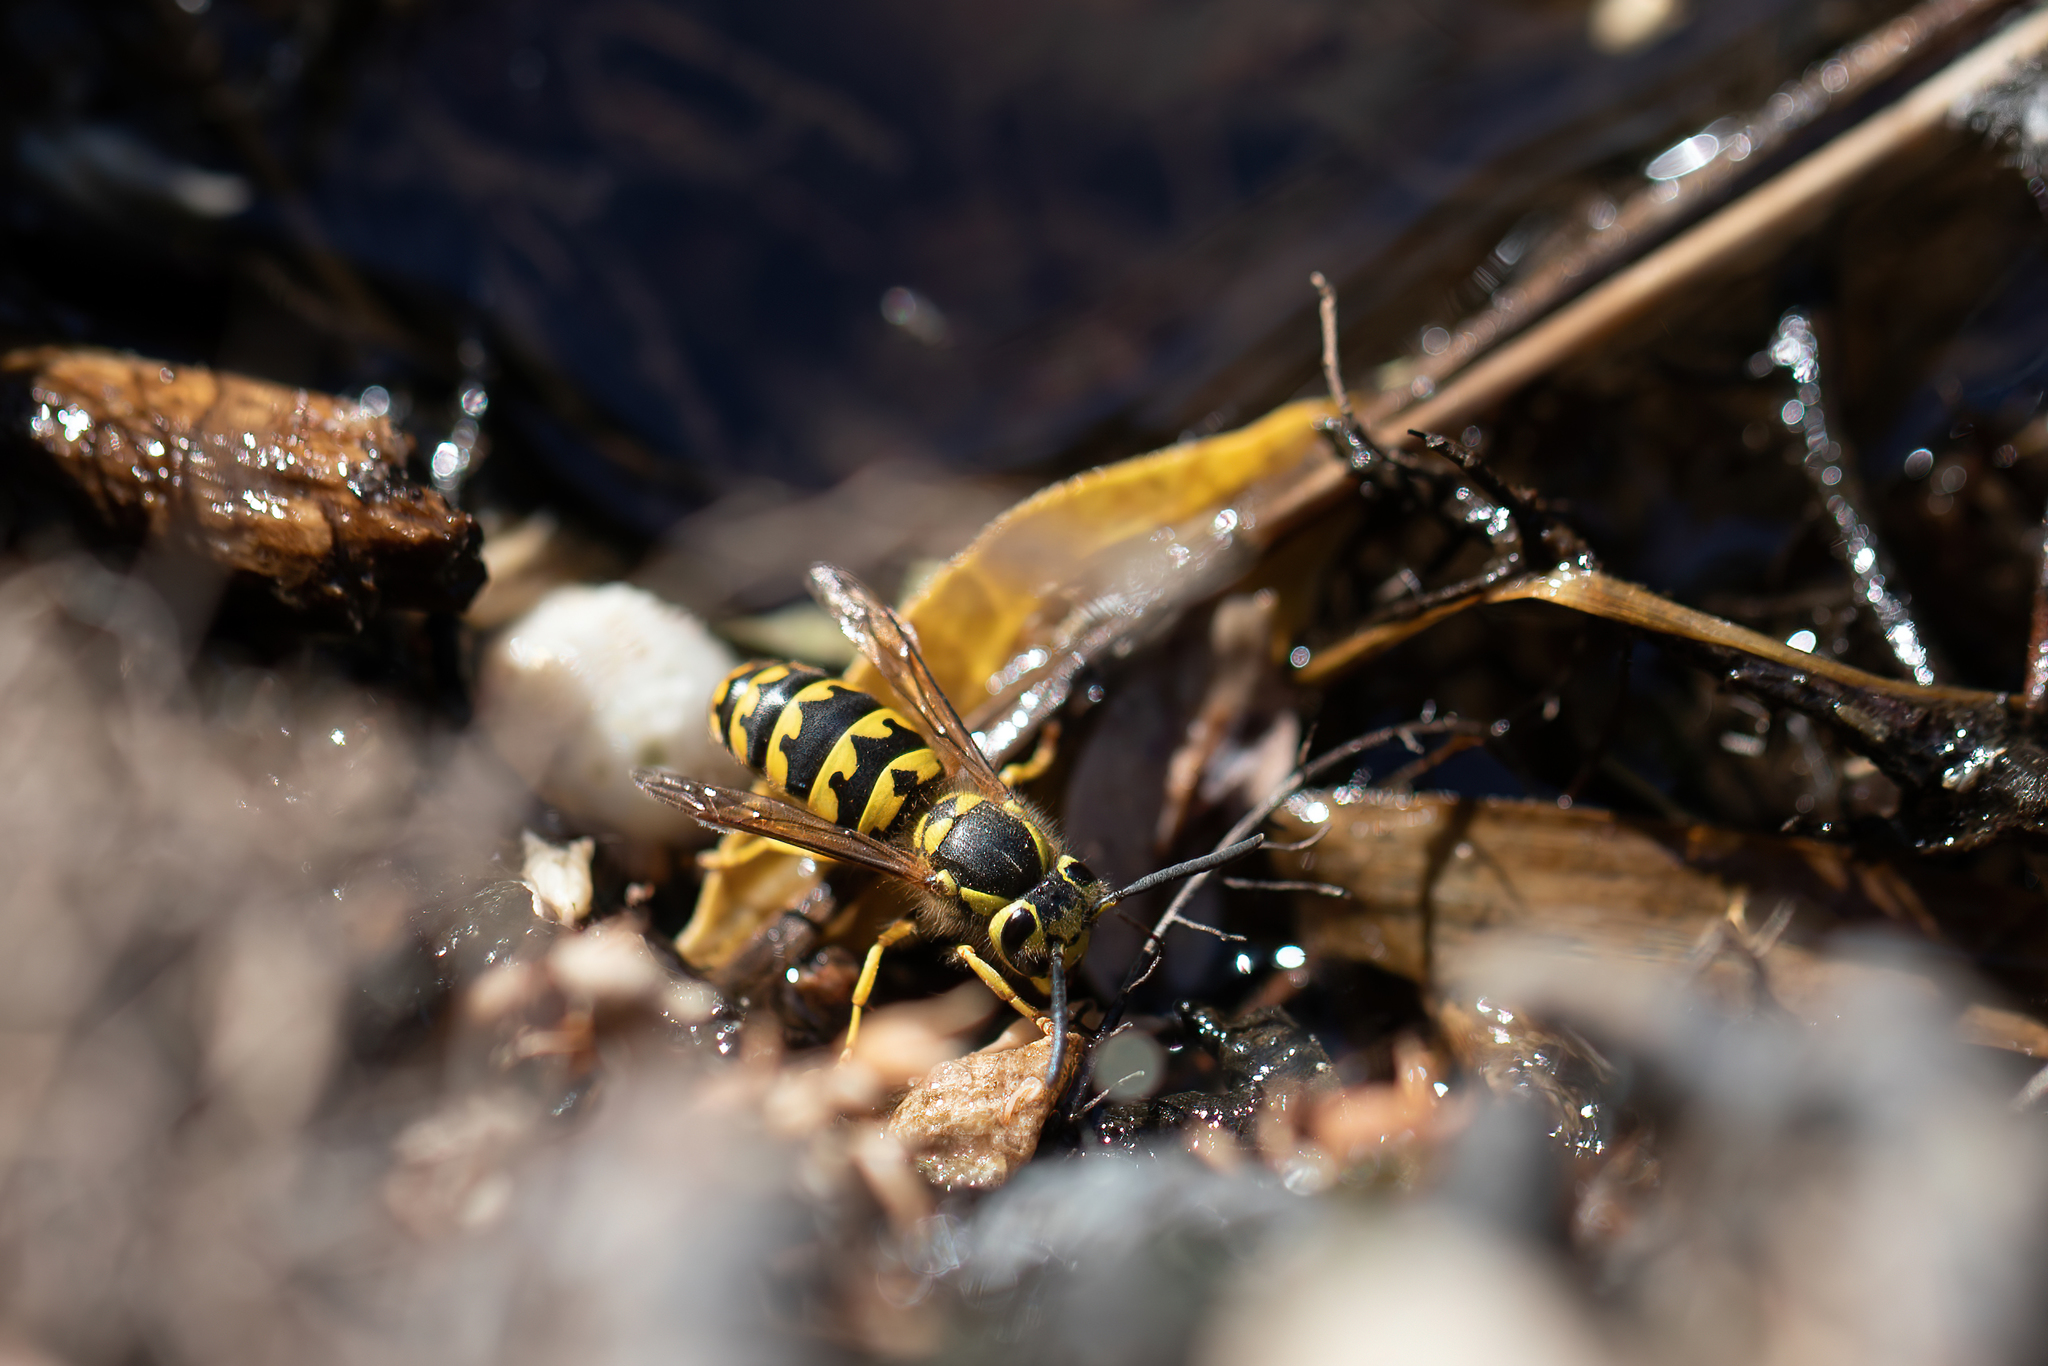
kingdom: Animalia
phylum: Arthropoda
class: Insecta
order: Hymenoptera
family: Vespidae
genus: Vespula
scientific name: Vespula pensylvanica
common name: Western yellowjacket
